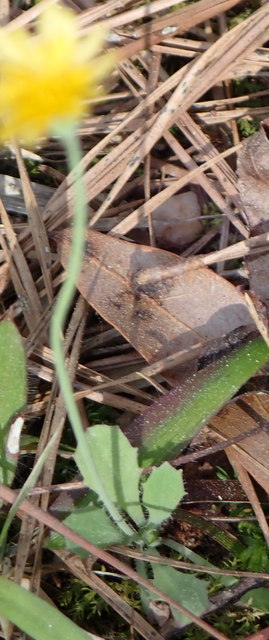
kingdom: Plantae
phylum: Tracheophyta
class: Magnoliopsida
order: Asterales
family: Asteraceae
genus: Krigia
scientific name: Krigia virginica
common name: Virginia dwarf-dandelion
